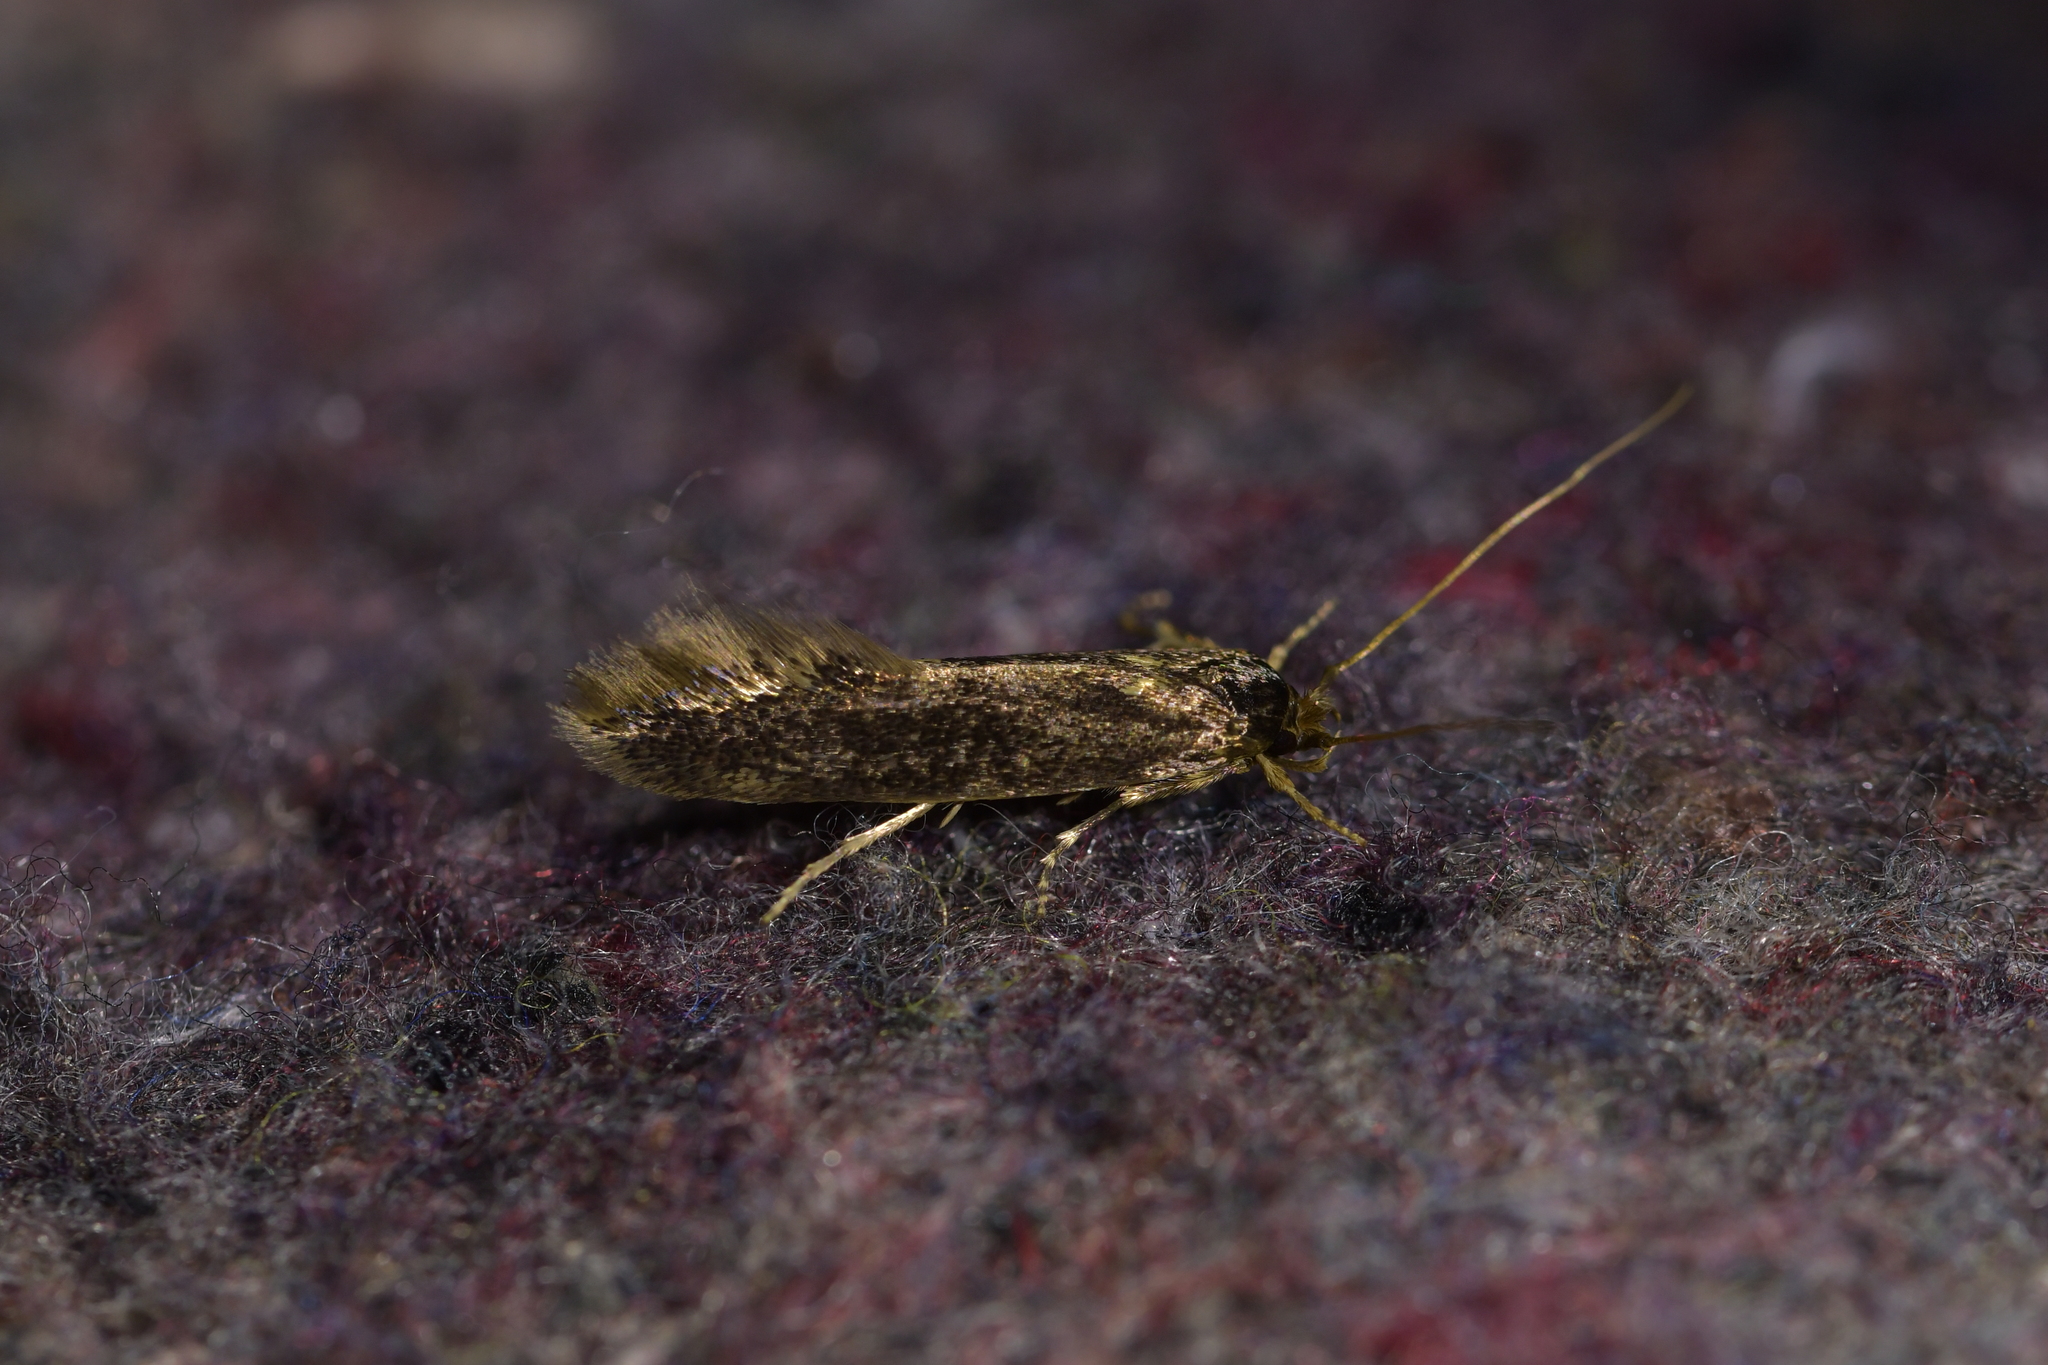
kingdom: Animalia
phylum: Arthropoda
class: Insecta
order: Lepidoptera
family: Tineidae
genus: Opogona
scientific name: Opogona omoscopa
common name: Moth
